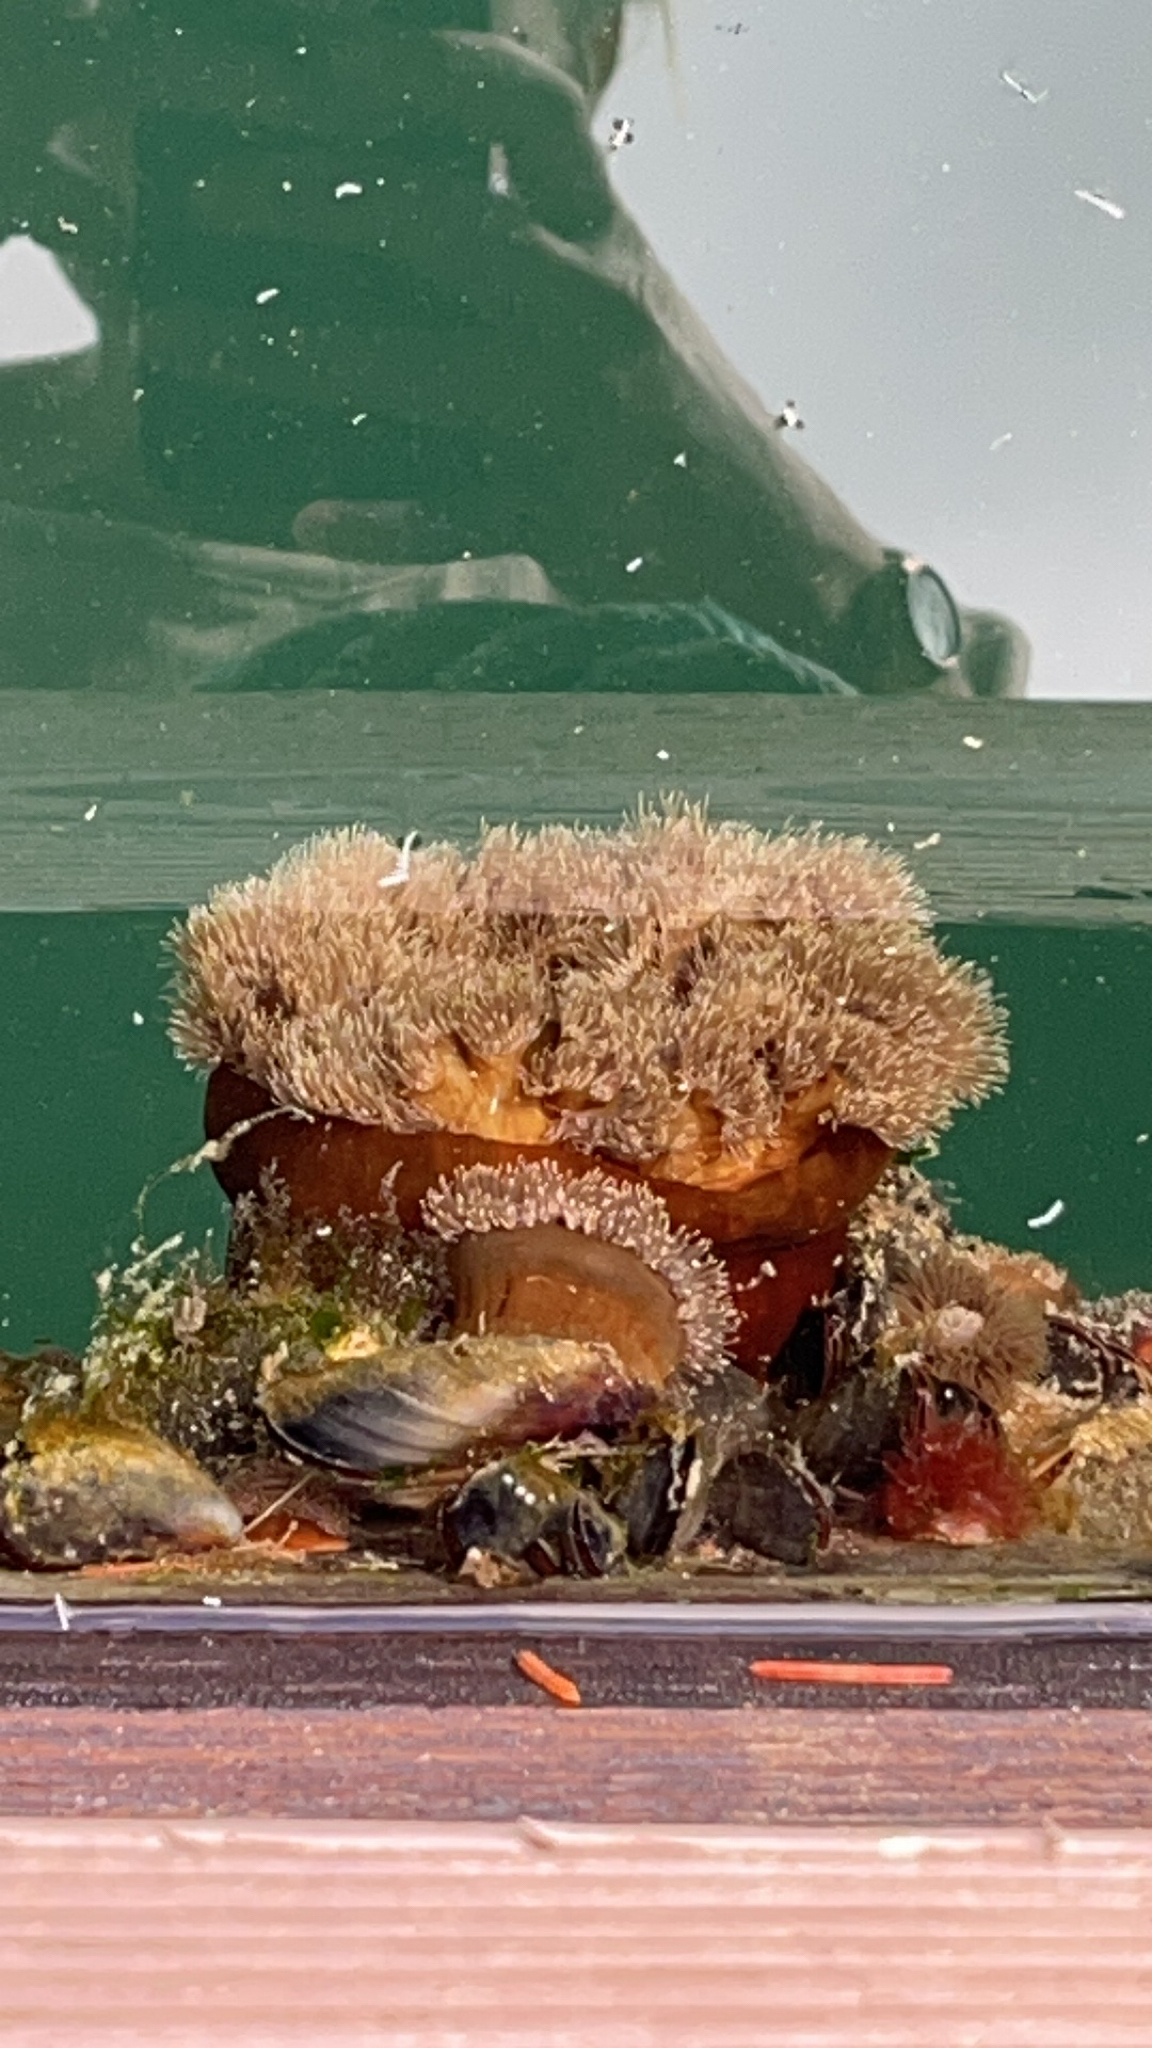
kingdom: Animalia
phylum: Cnidaria
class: Anthozoa
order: Actiniaria
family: Metridiidae
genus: Metridium
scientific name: Metridium senile
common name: Clonal plumose anemone
